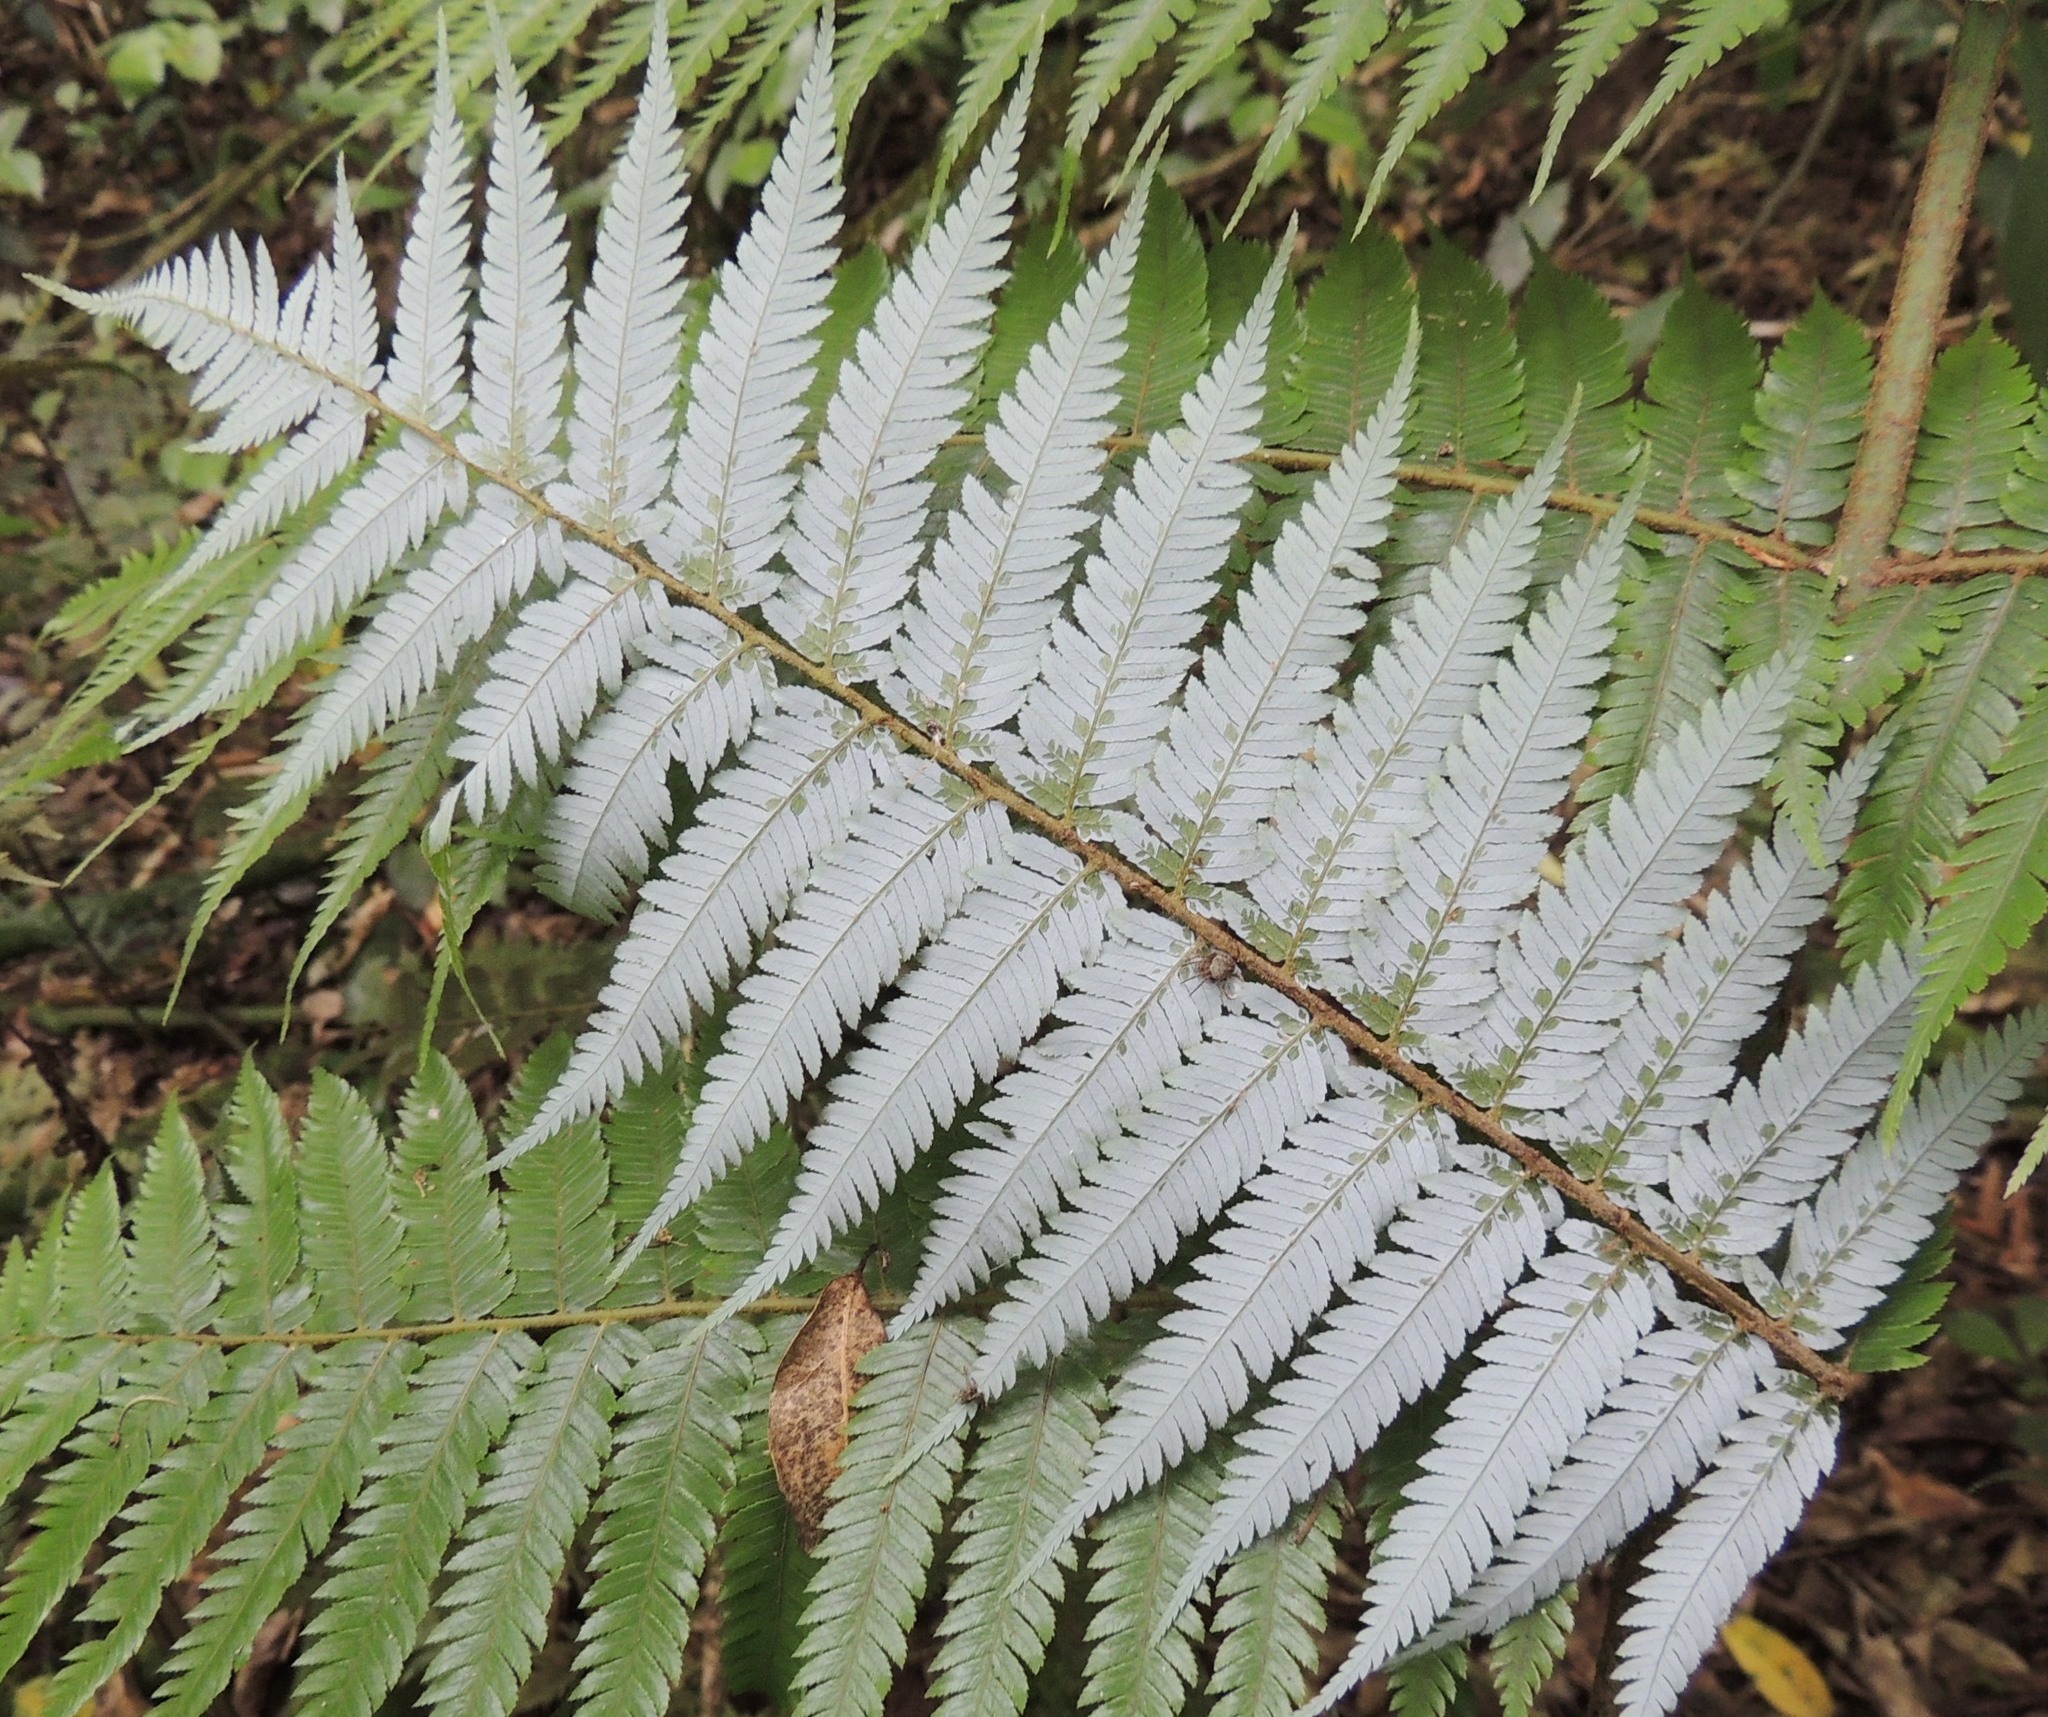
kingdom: Plantae
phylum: Tracheophyta
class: Polypodiopsida
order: Cyatheales
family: Cyatheaceae
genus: Alsophila
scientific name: Alsophila dealbata
